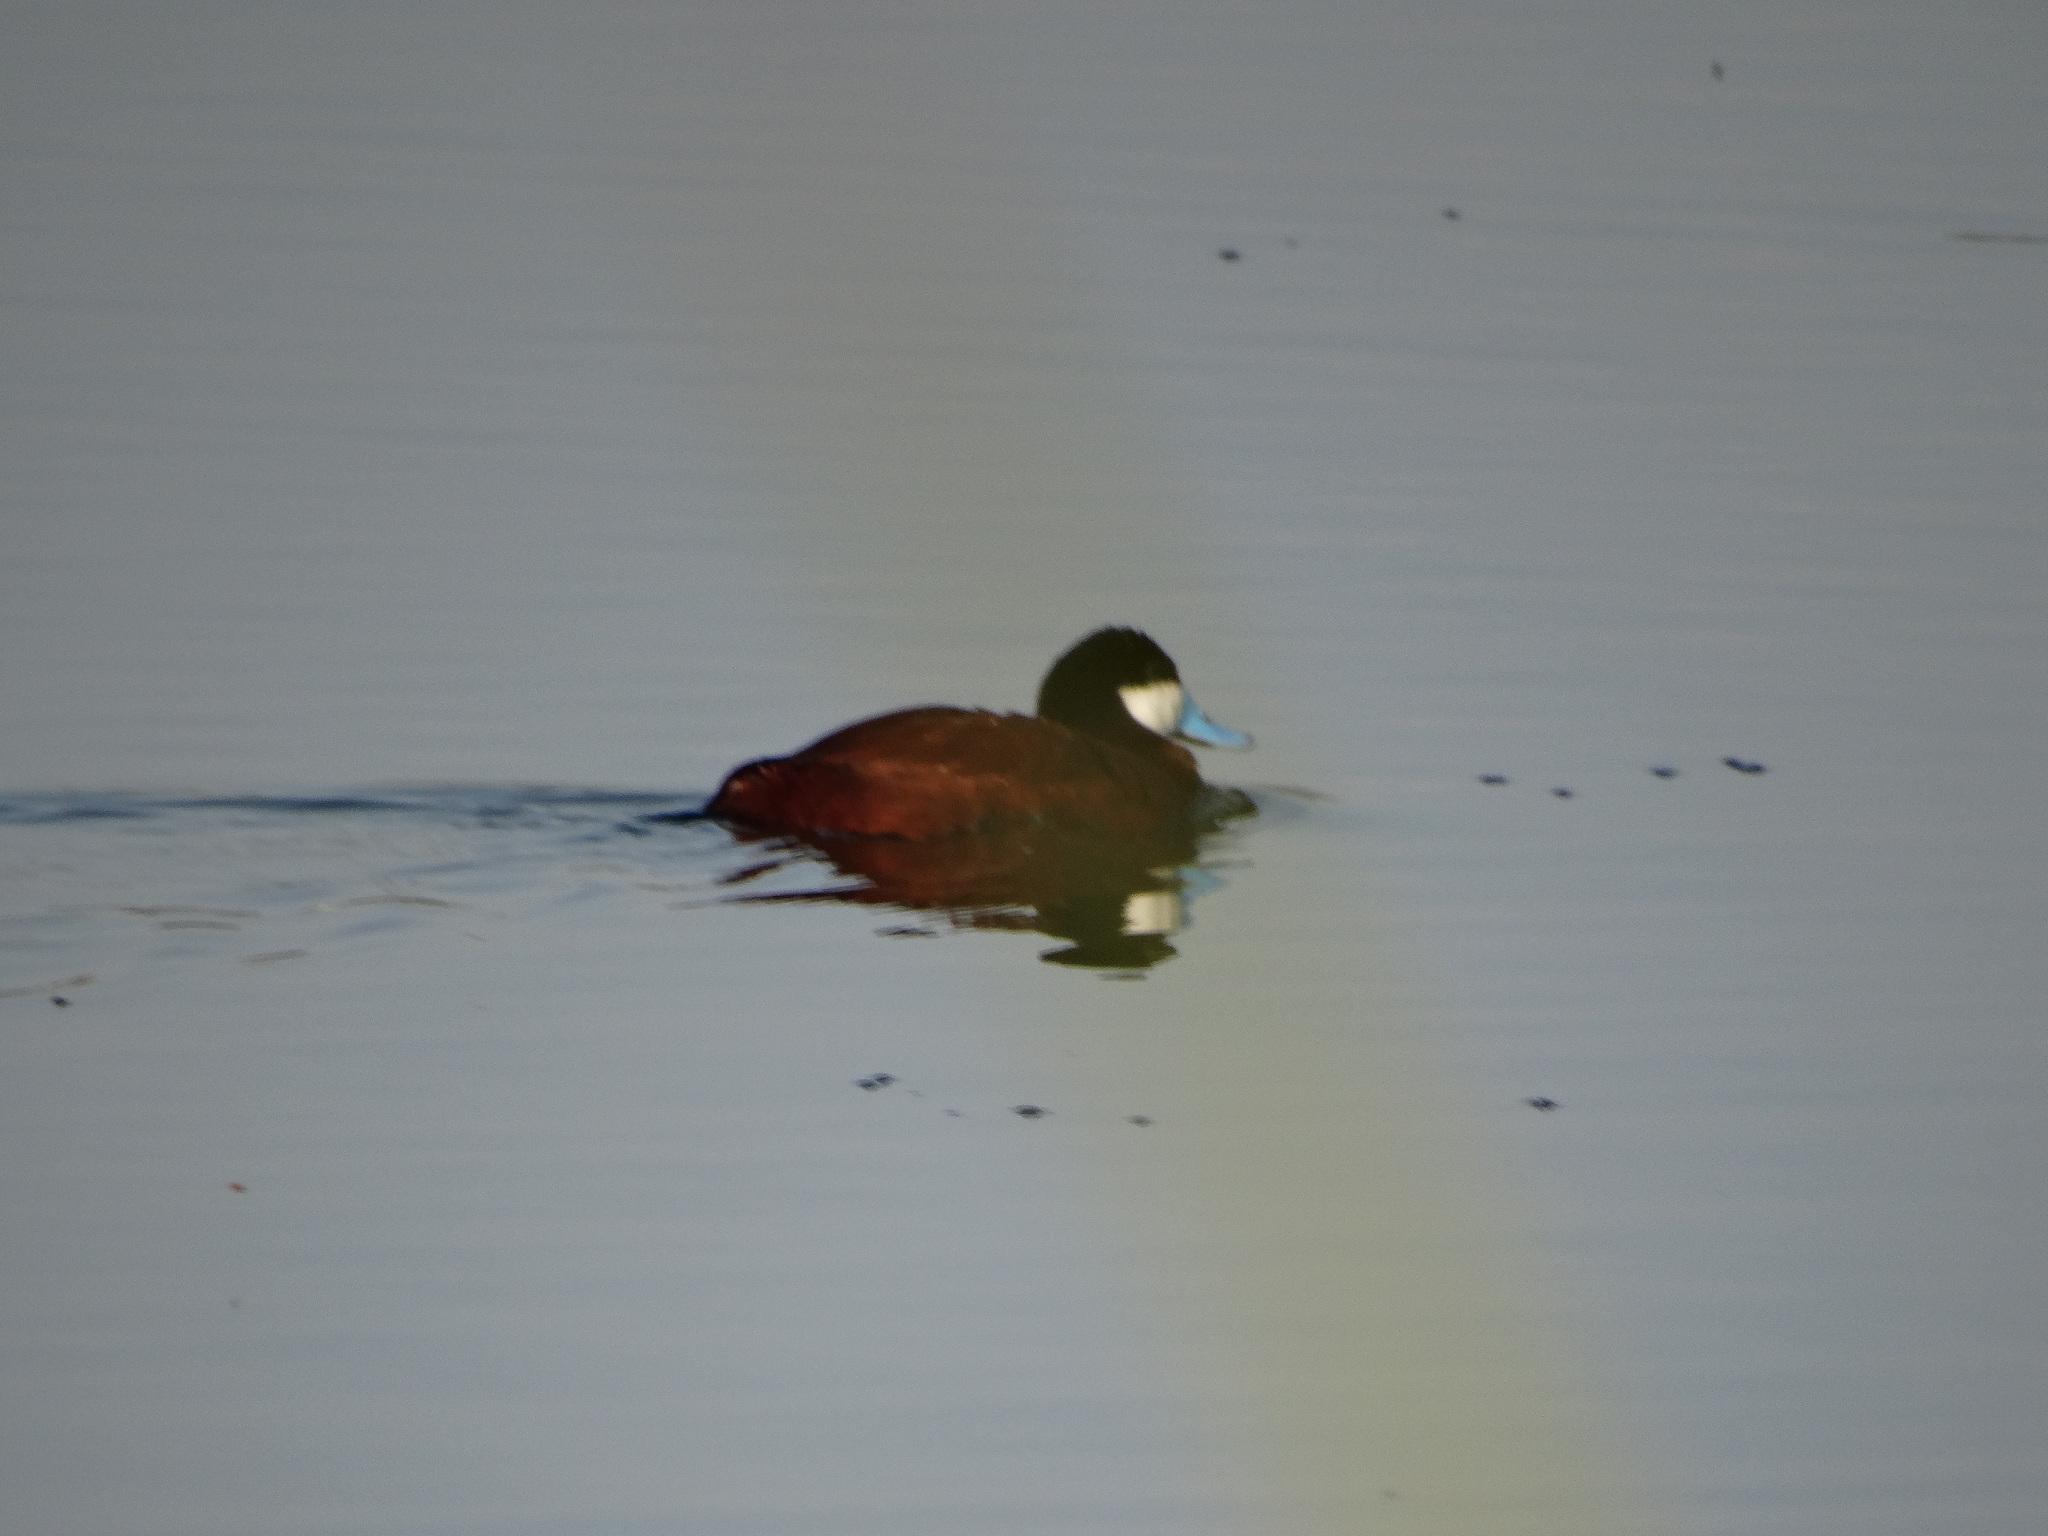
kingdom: Animalia
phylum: Chordata
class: Aves
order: Anseriformes
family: Anatidae
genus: Oxyura
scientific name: Oxyura jamaicensis
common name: Ruddy duck
